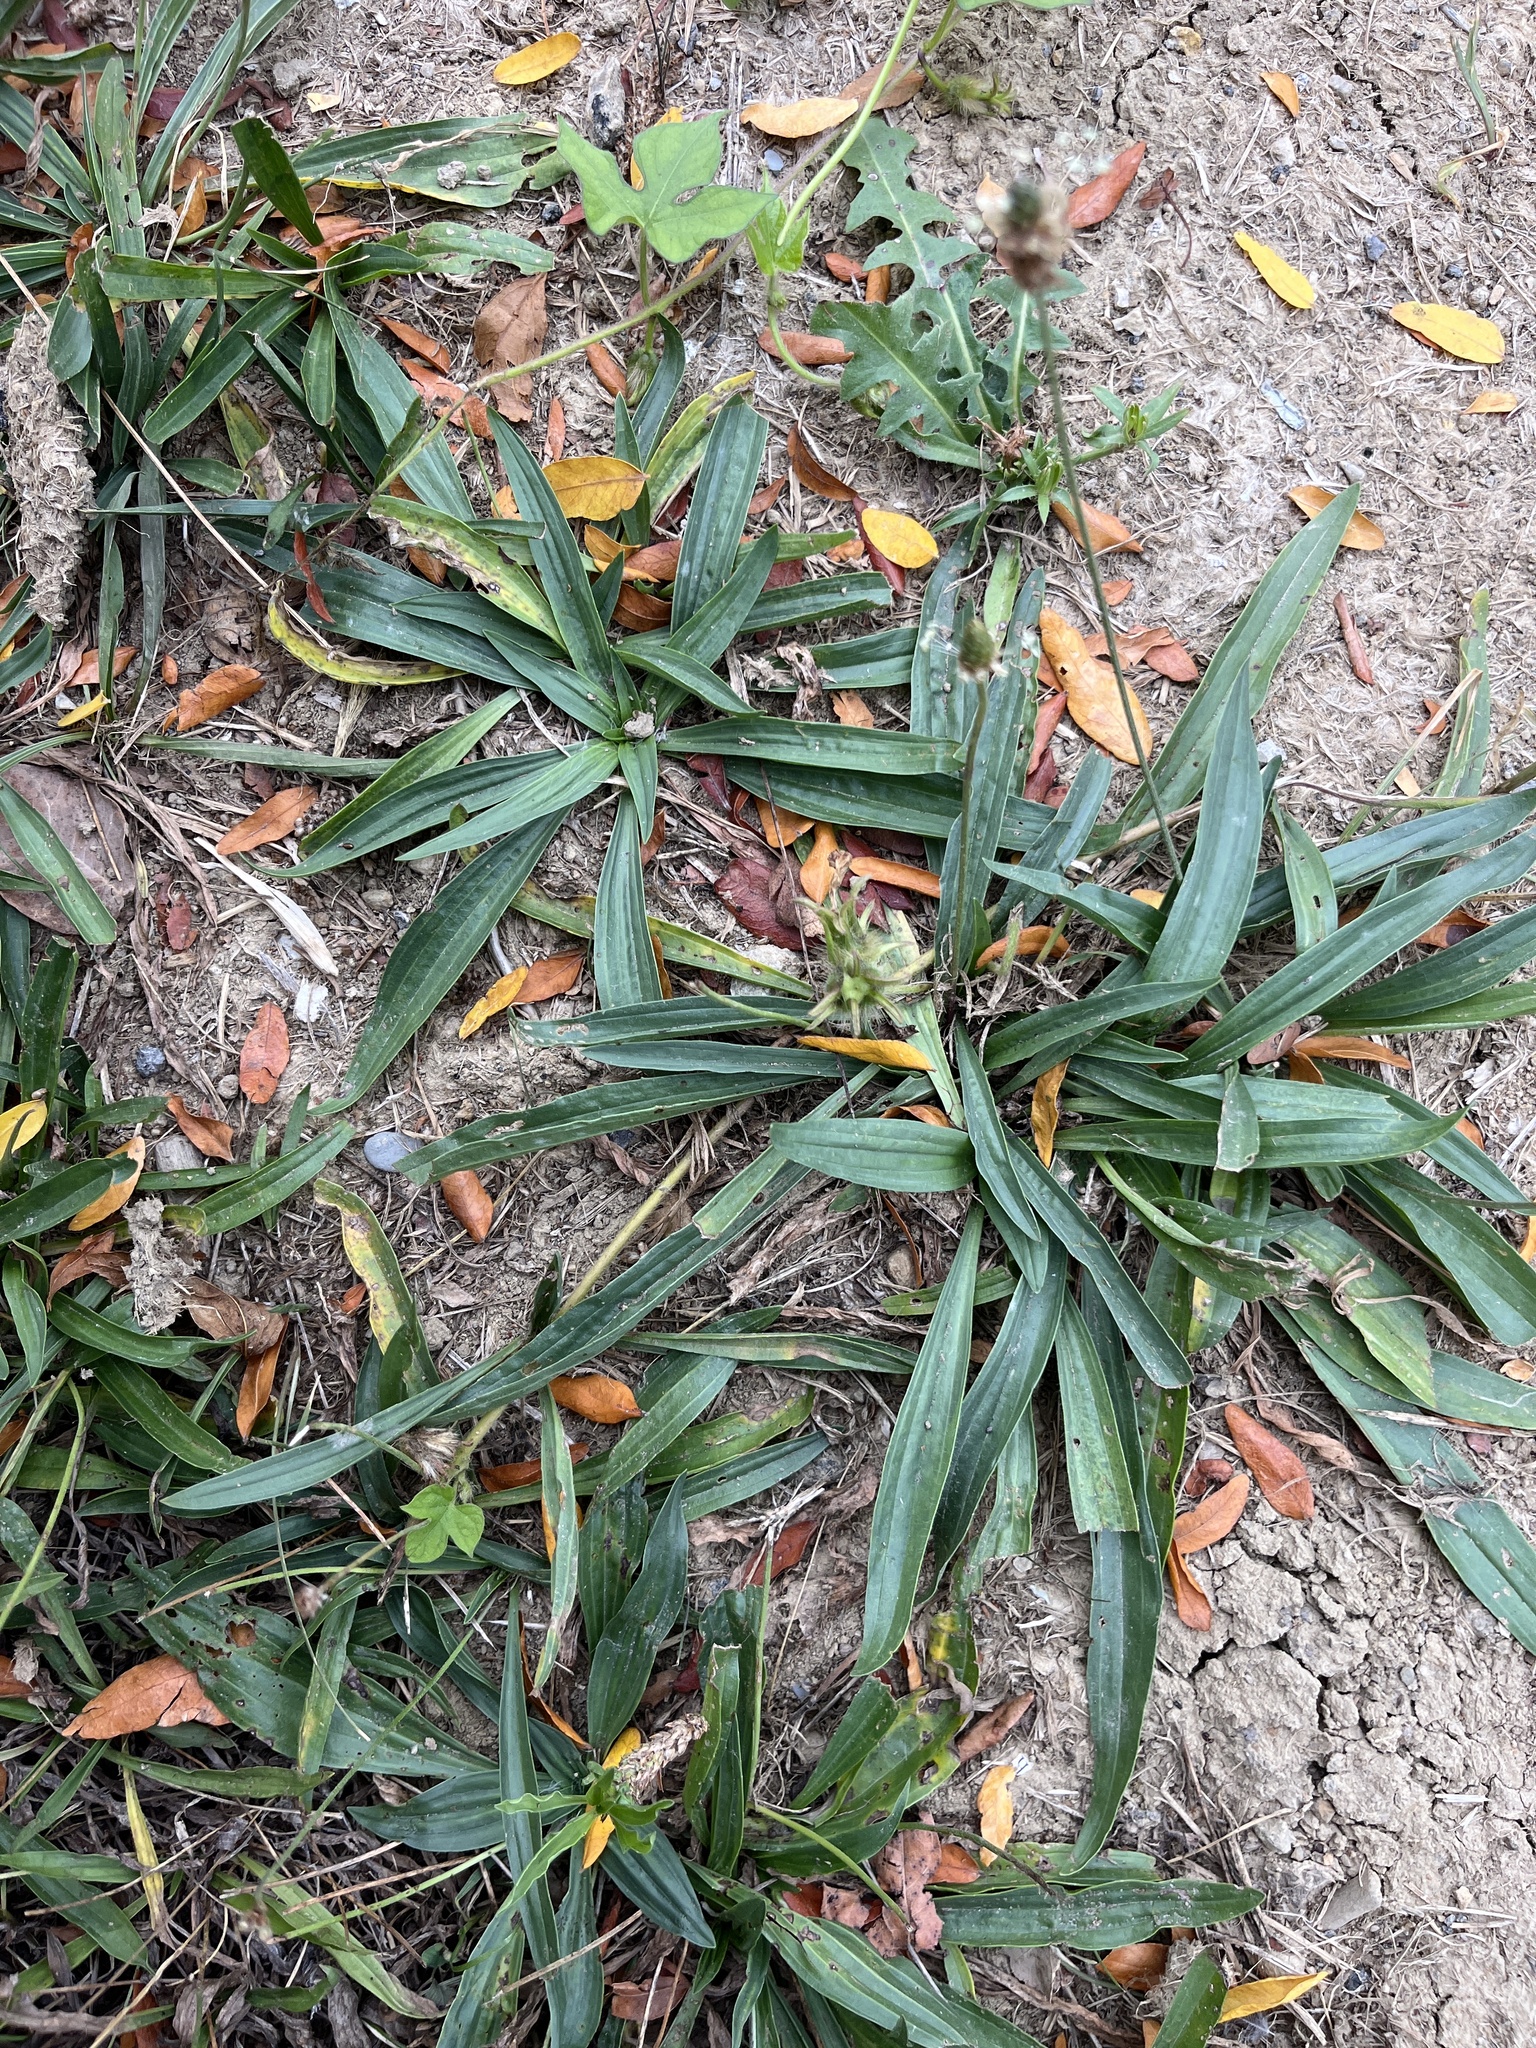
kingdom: Plantae
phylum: Tracheophyta
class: Magnoliopsida
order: Lamiales
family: Plantaginaceae
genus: Plantago
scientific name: Plantago lanceolata
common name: Ribwort plantain
